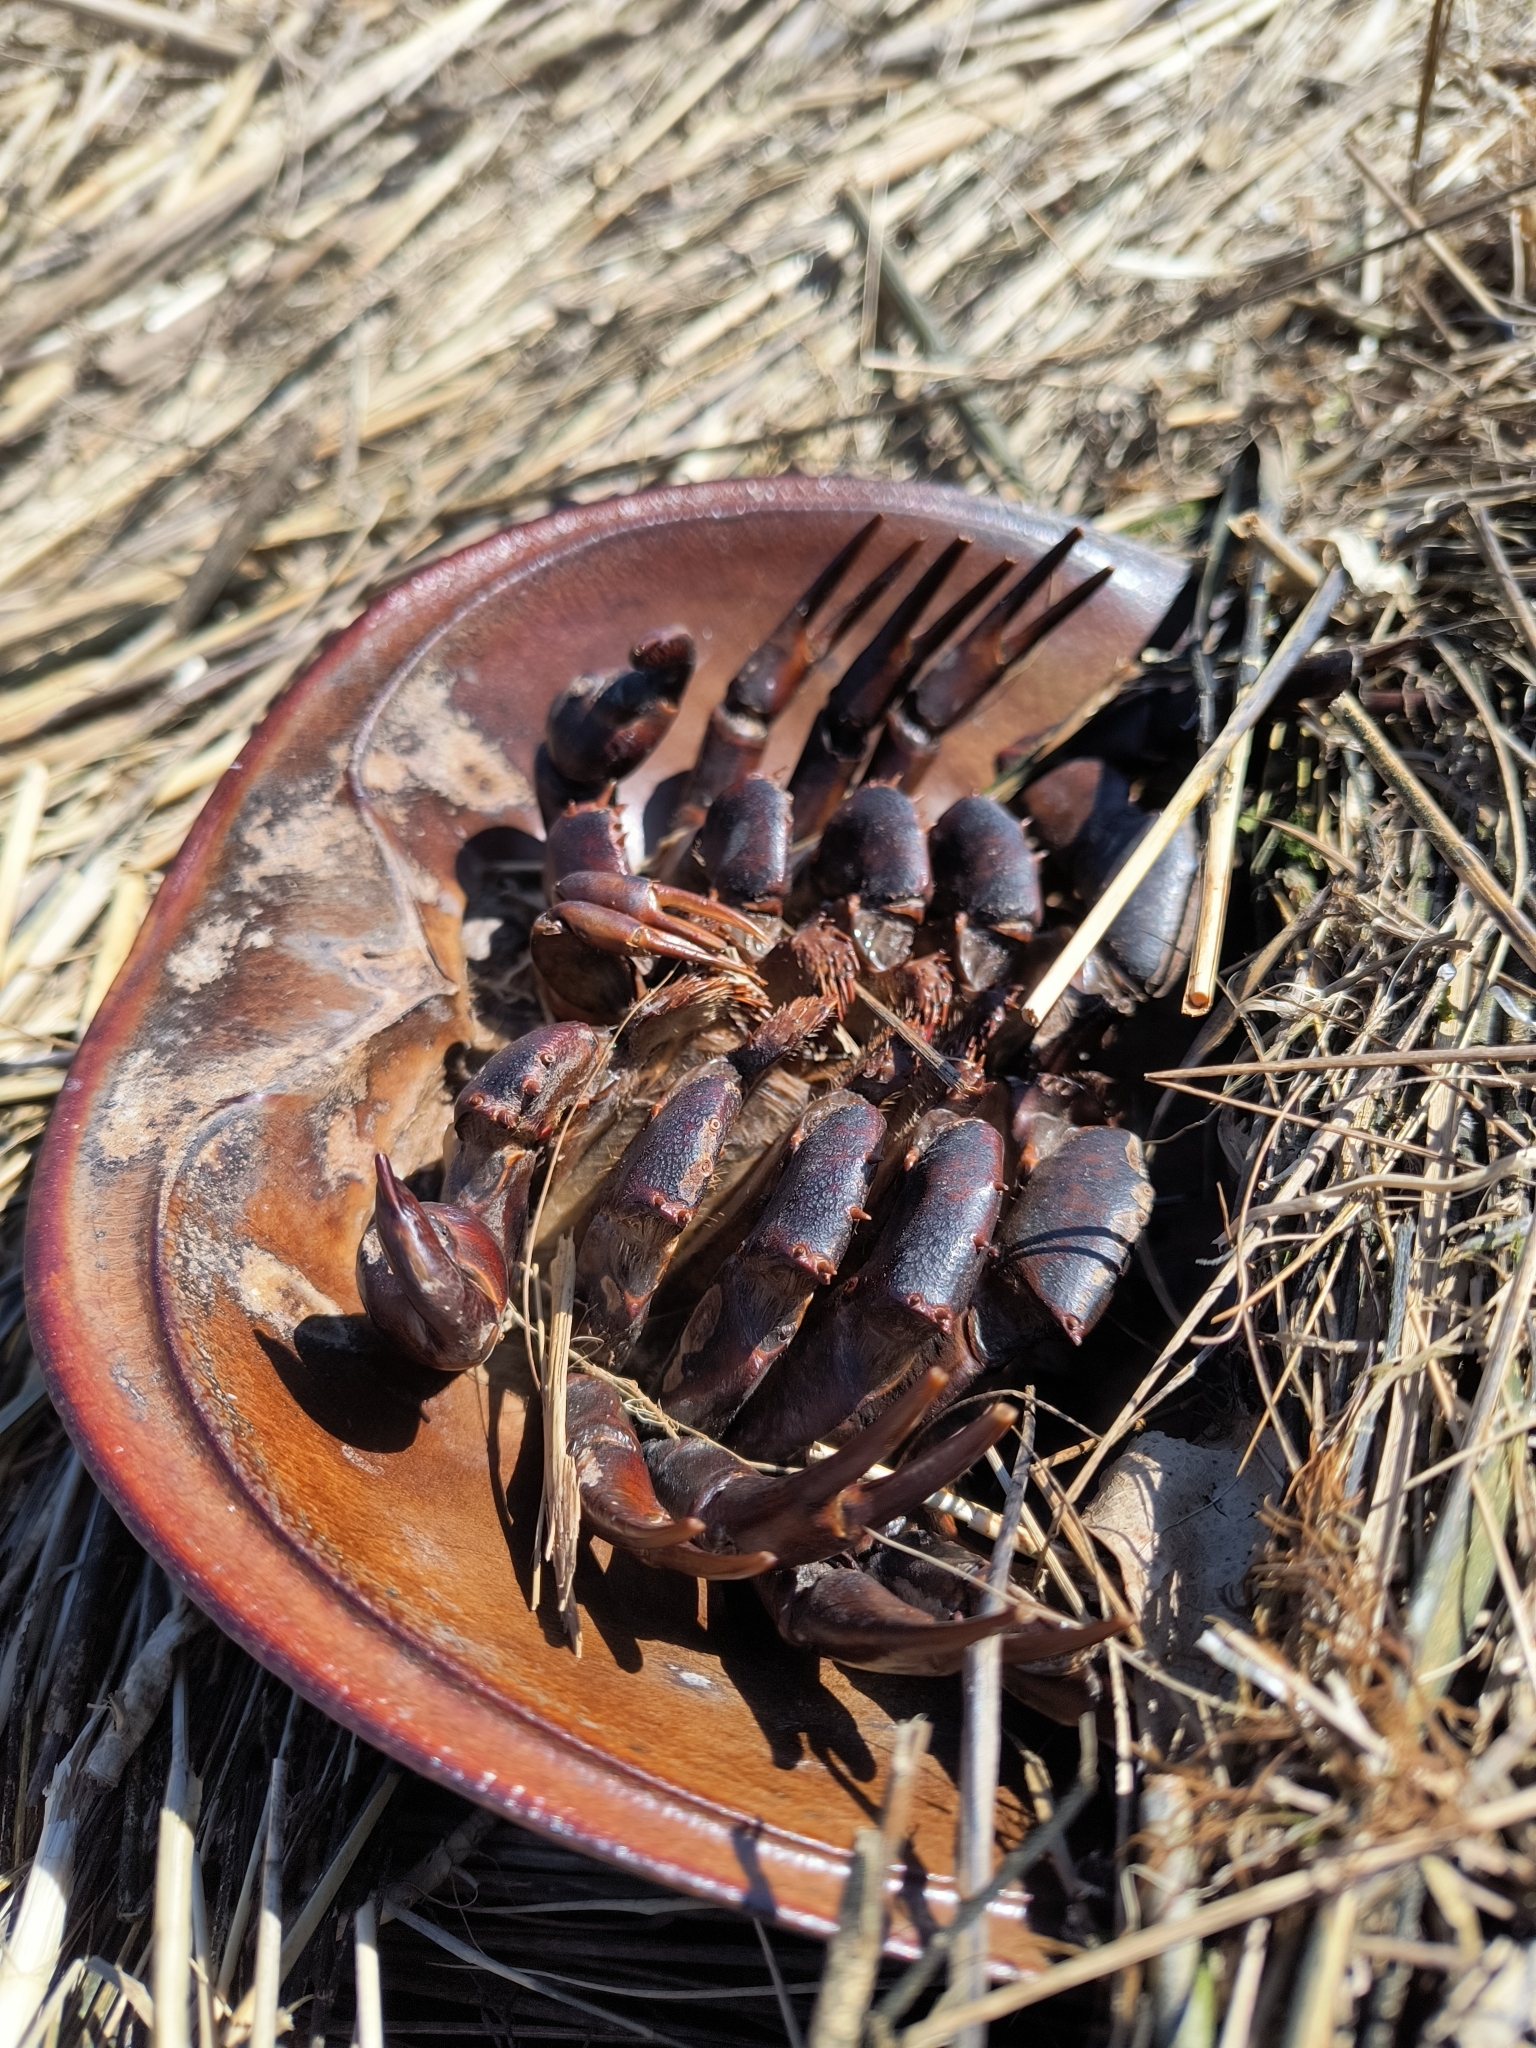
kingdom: Animalia
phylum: Arthropoda
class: Merostomata
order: Xiphosurida
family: Limulidae
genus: Limulus
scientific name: Limulus polyphemus
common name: Horseshoe crab
